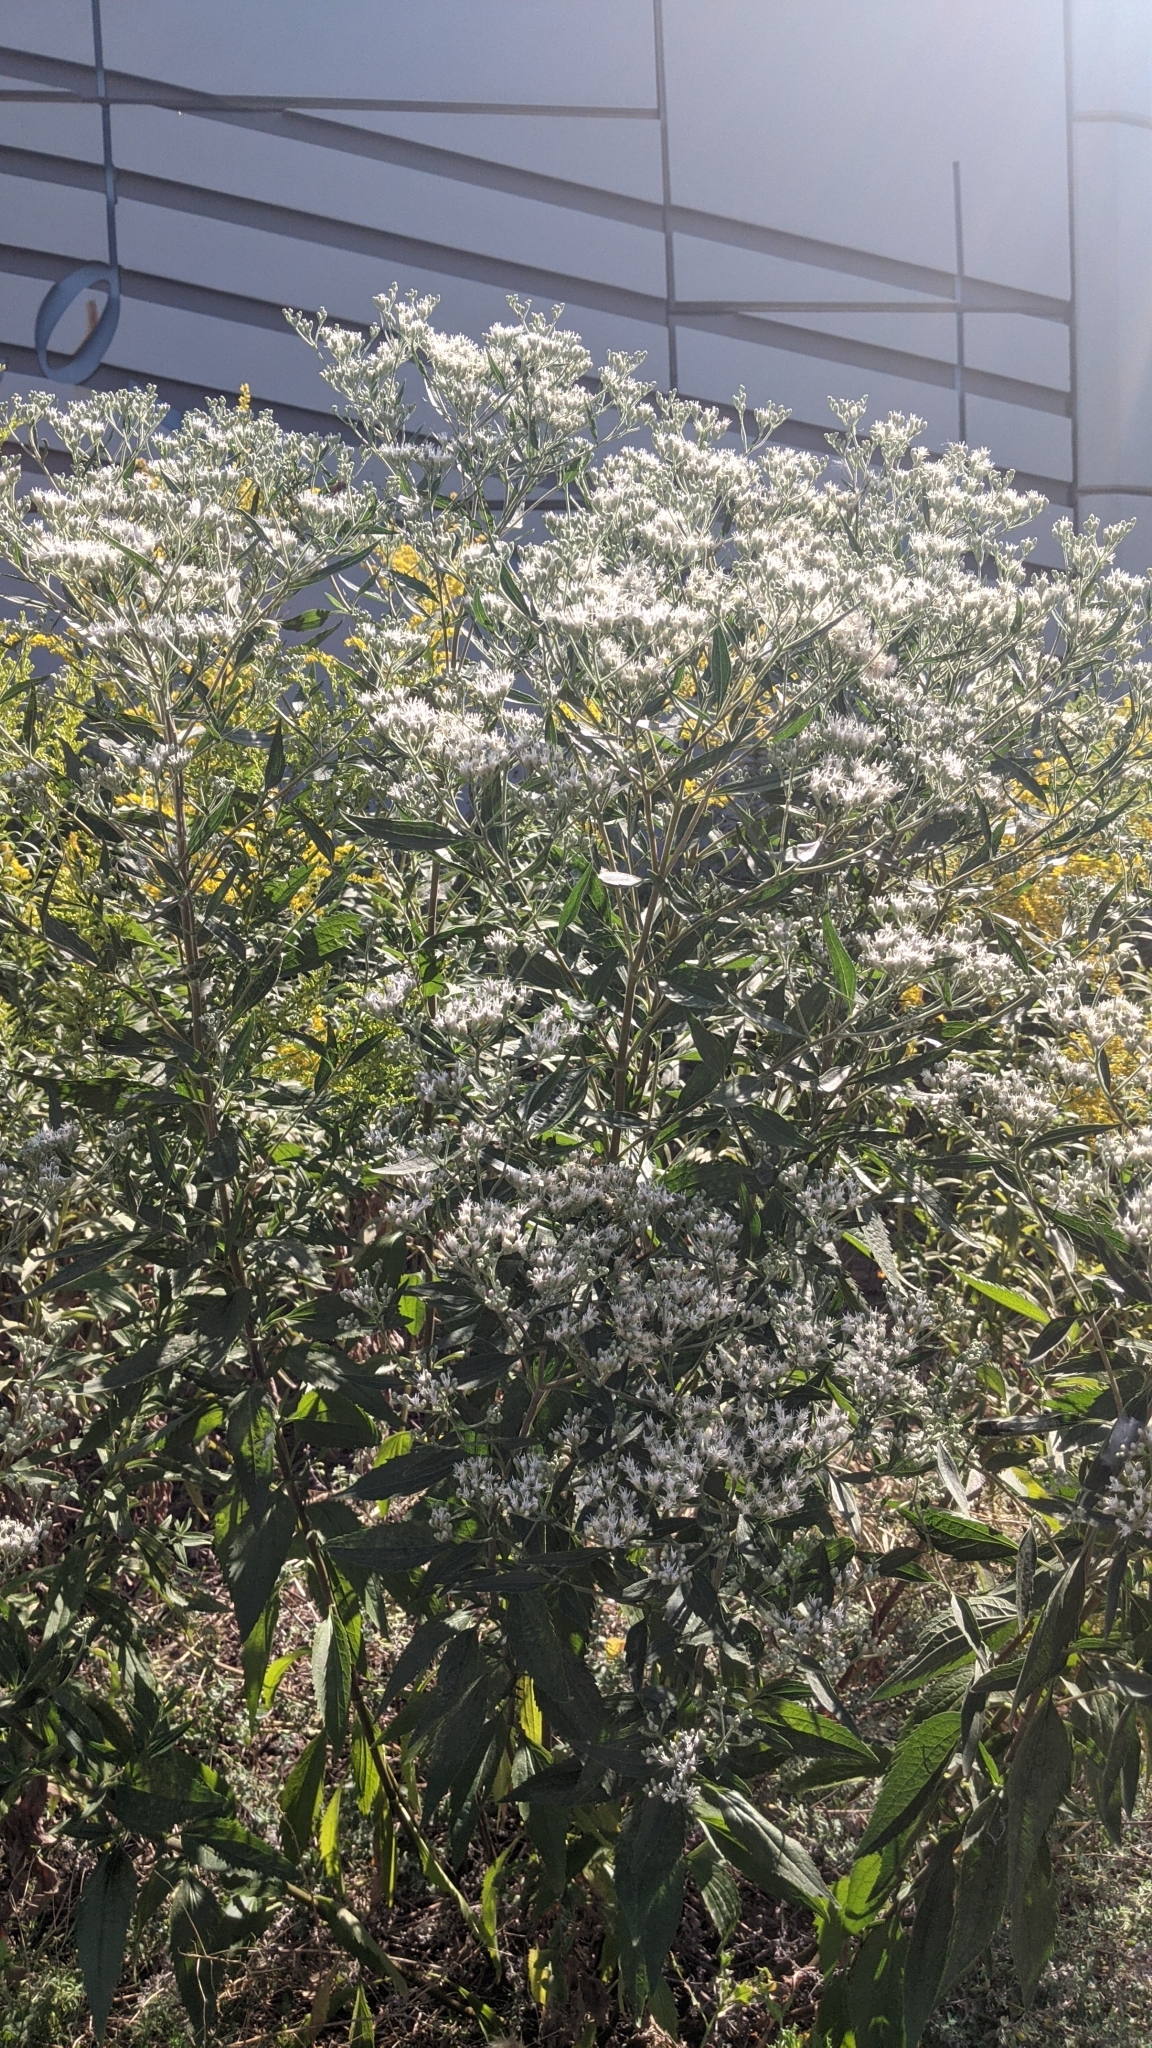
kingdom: Plantae
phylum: Tracheophyta
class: Magnoliopsida
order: Asterales
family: Asteraceae
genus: Eupatorium
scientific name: Eupatorium serotinum
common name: Late boneset
